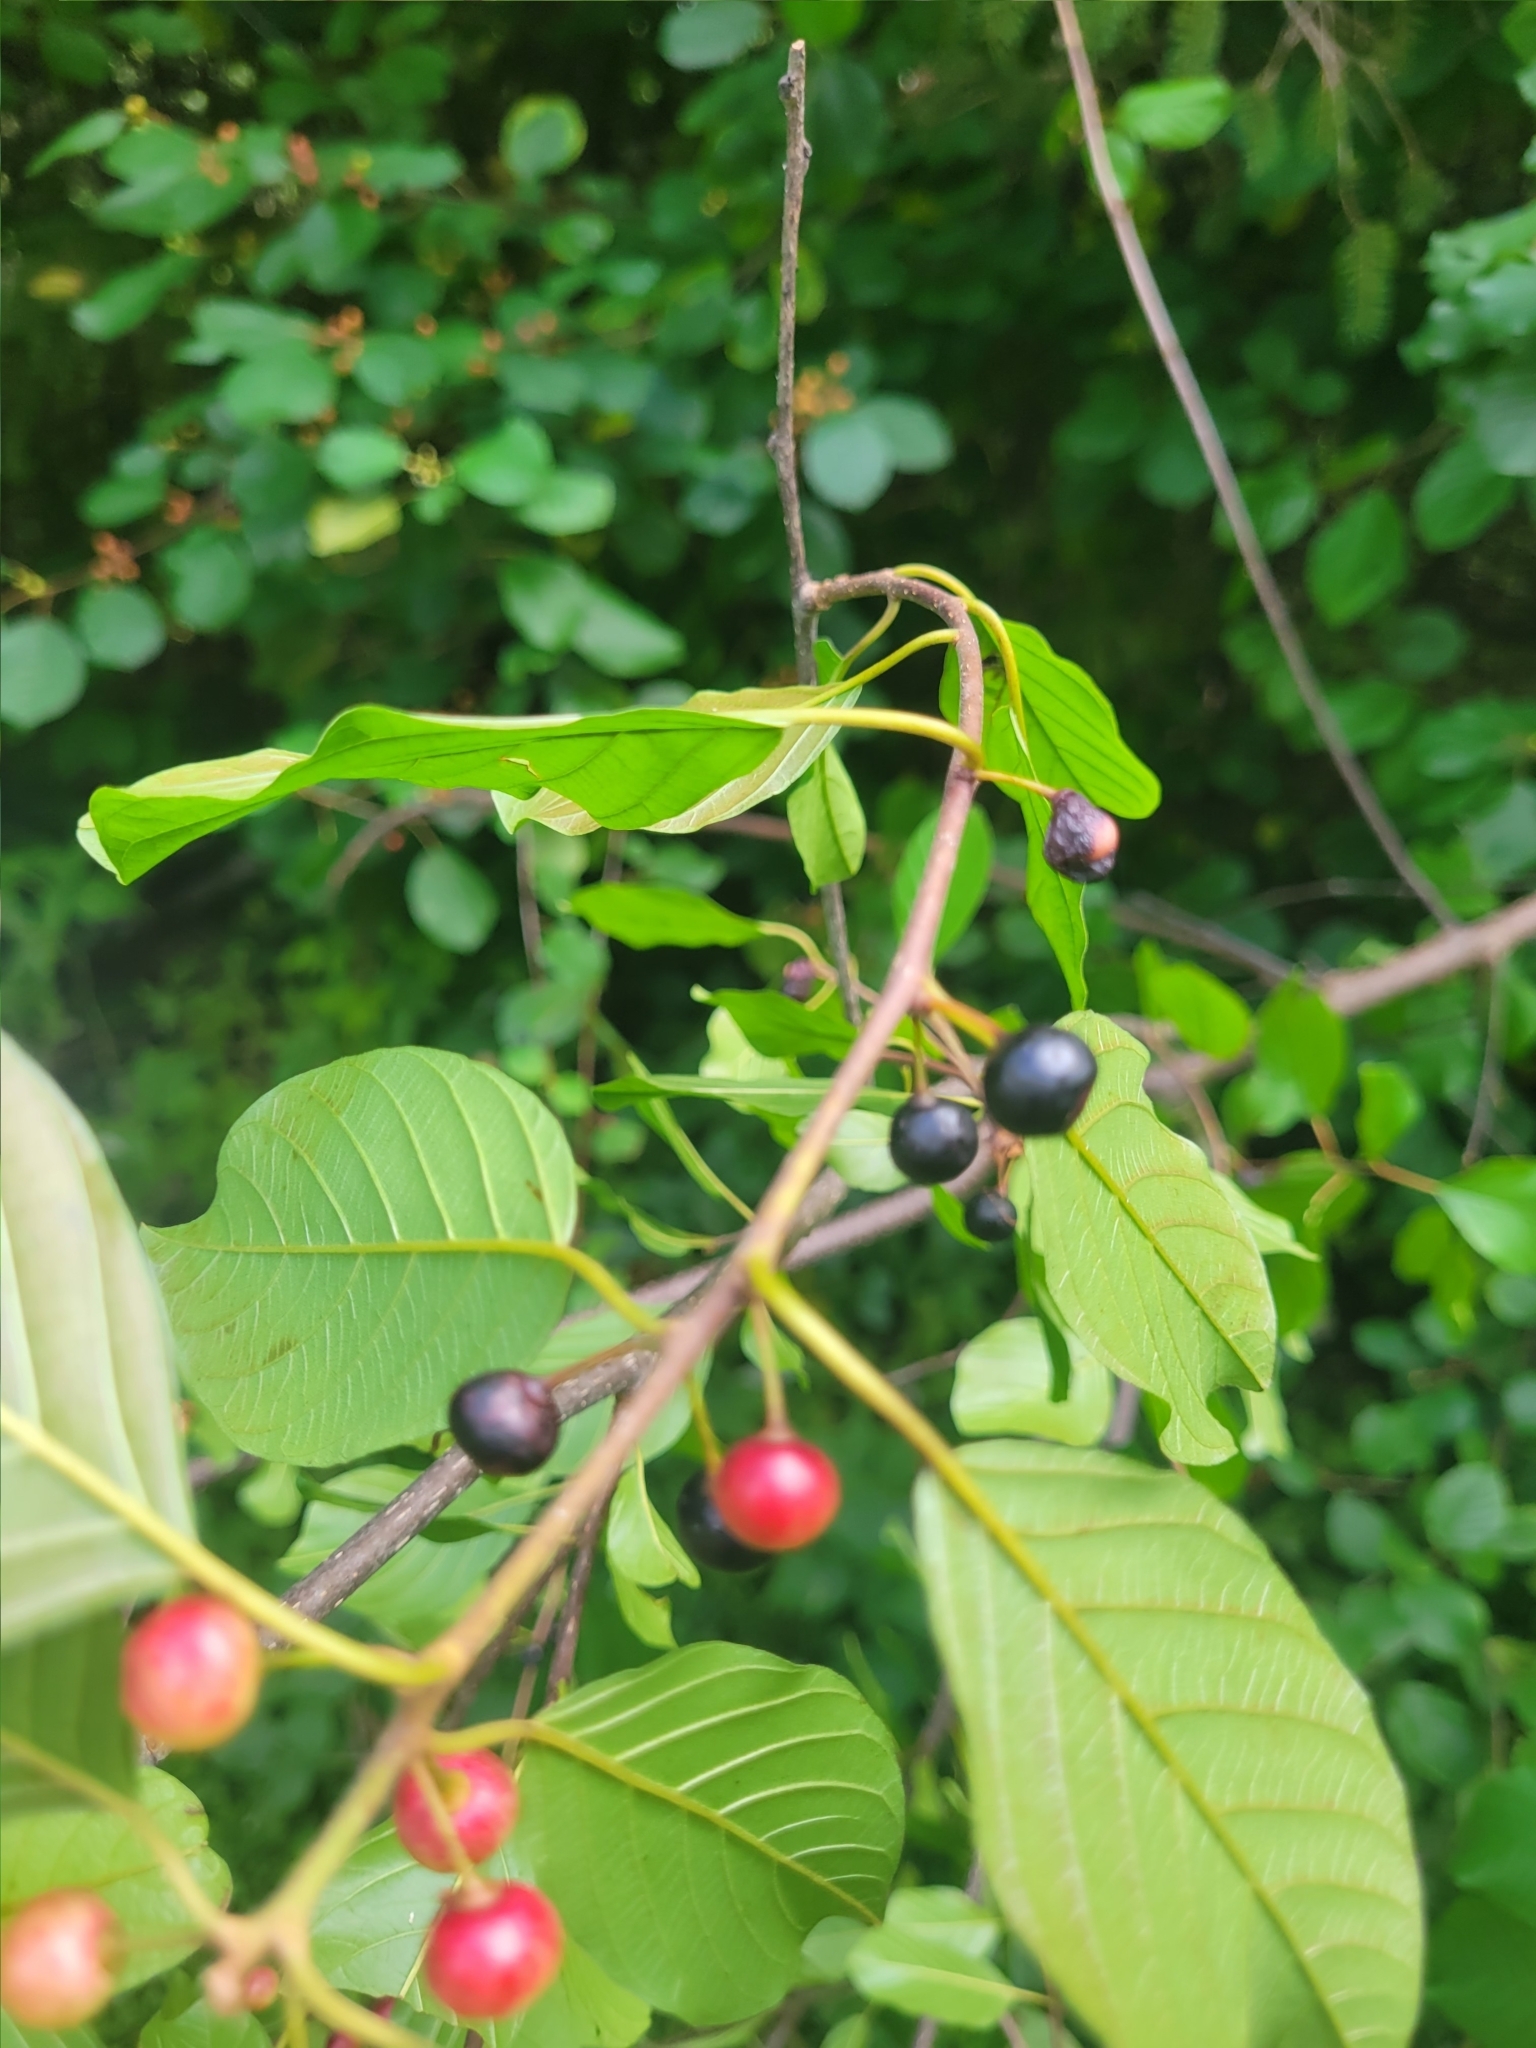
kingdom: Plantae
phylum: Tracheophyta
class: Magnoliopsida
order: Rosales
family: Rhamnaceae
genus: Frangula
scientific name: Frangula alnus
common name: Alder buckthorn
